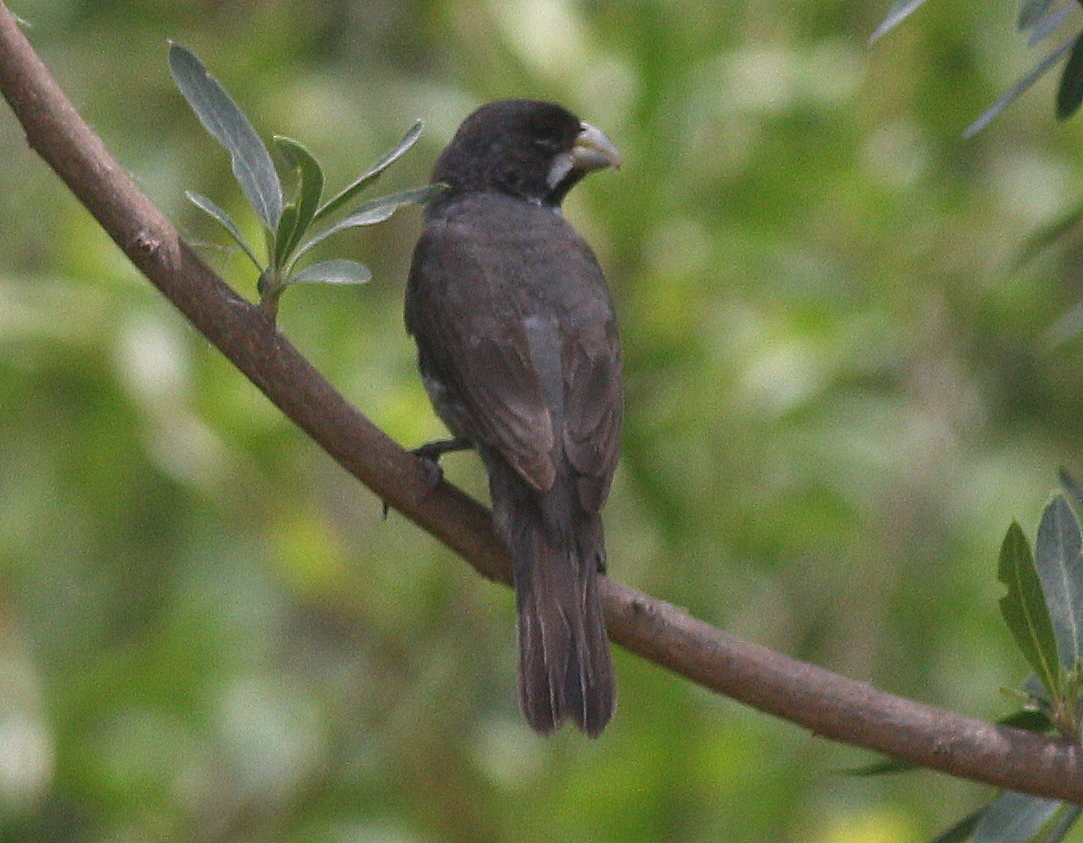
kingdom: Animalia
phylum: Chordata
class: Aves
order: Passeriformes
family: Thraupidae
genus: Sporophila
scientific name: Sporophila caerulescens
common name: Double-collared seedeater
